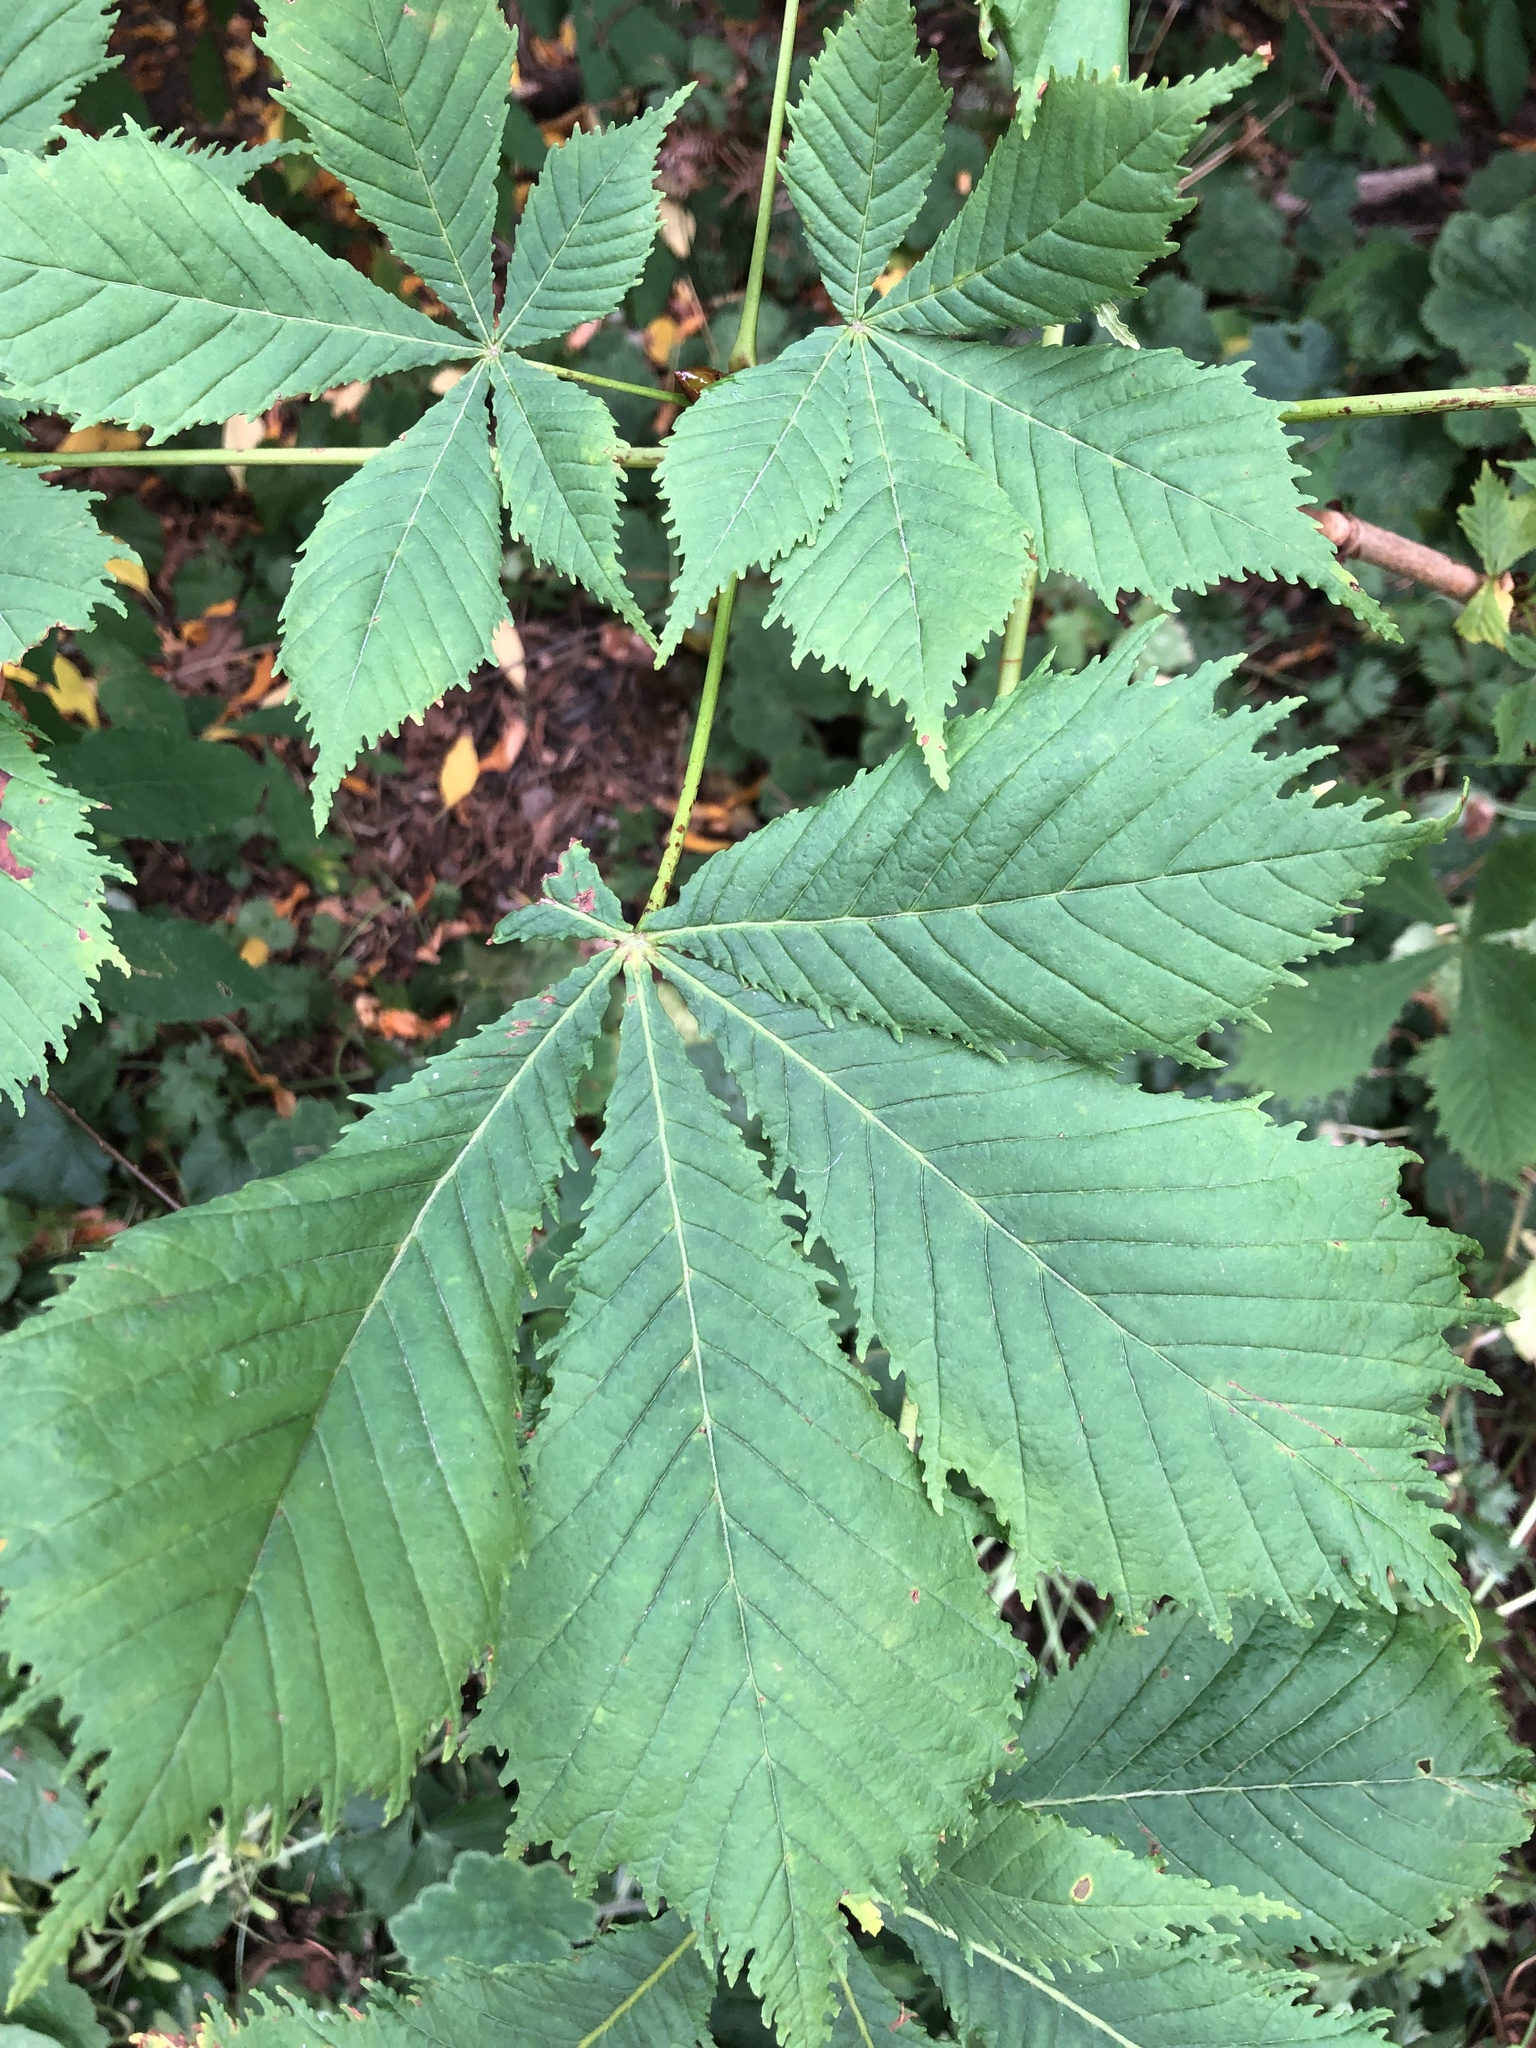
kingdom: Plantae
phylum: Tracheophyta
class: Magnoliopsida
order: Sapindales
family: Sapindaceae
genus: Aesculus
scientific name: Aesculus hippocastanum
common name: Horse-chestnut
